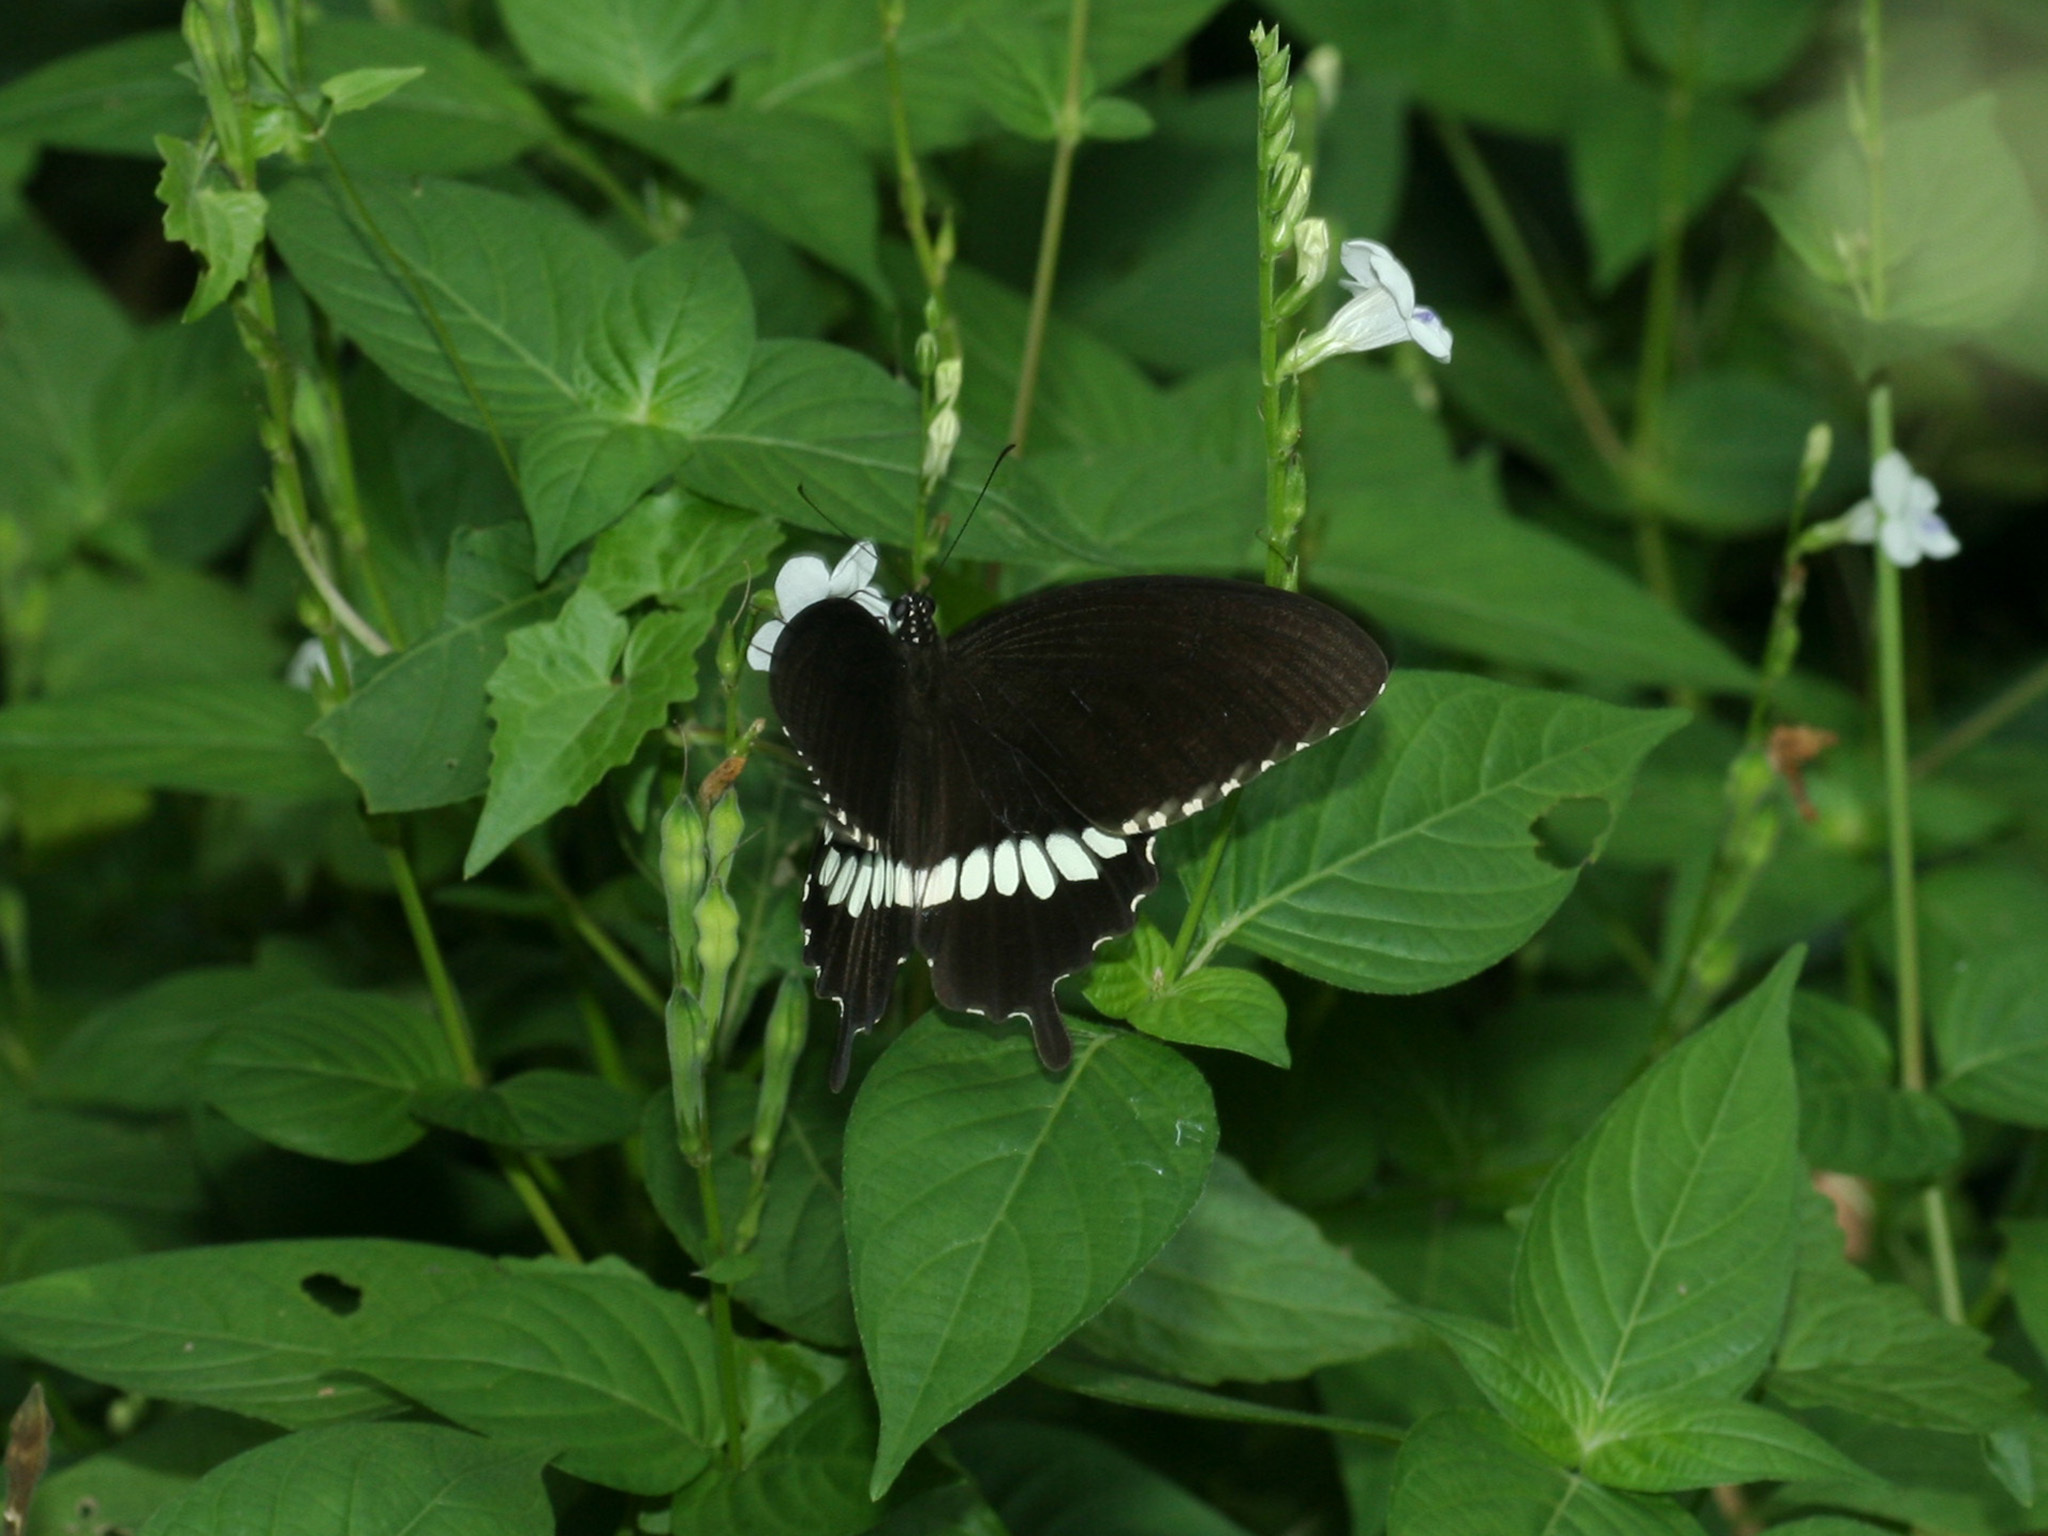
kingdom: Animalia
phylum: Arthropoda
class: Insecta
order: Lepidoptera
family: Papilionidae
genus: Papilio
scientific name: Papilio polytes
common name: Common mormon
